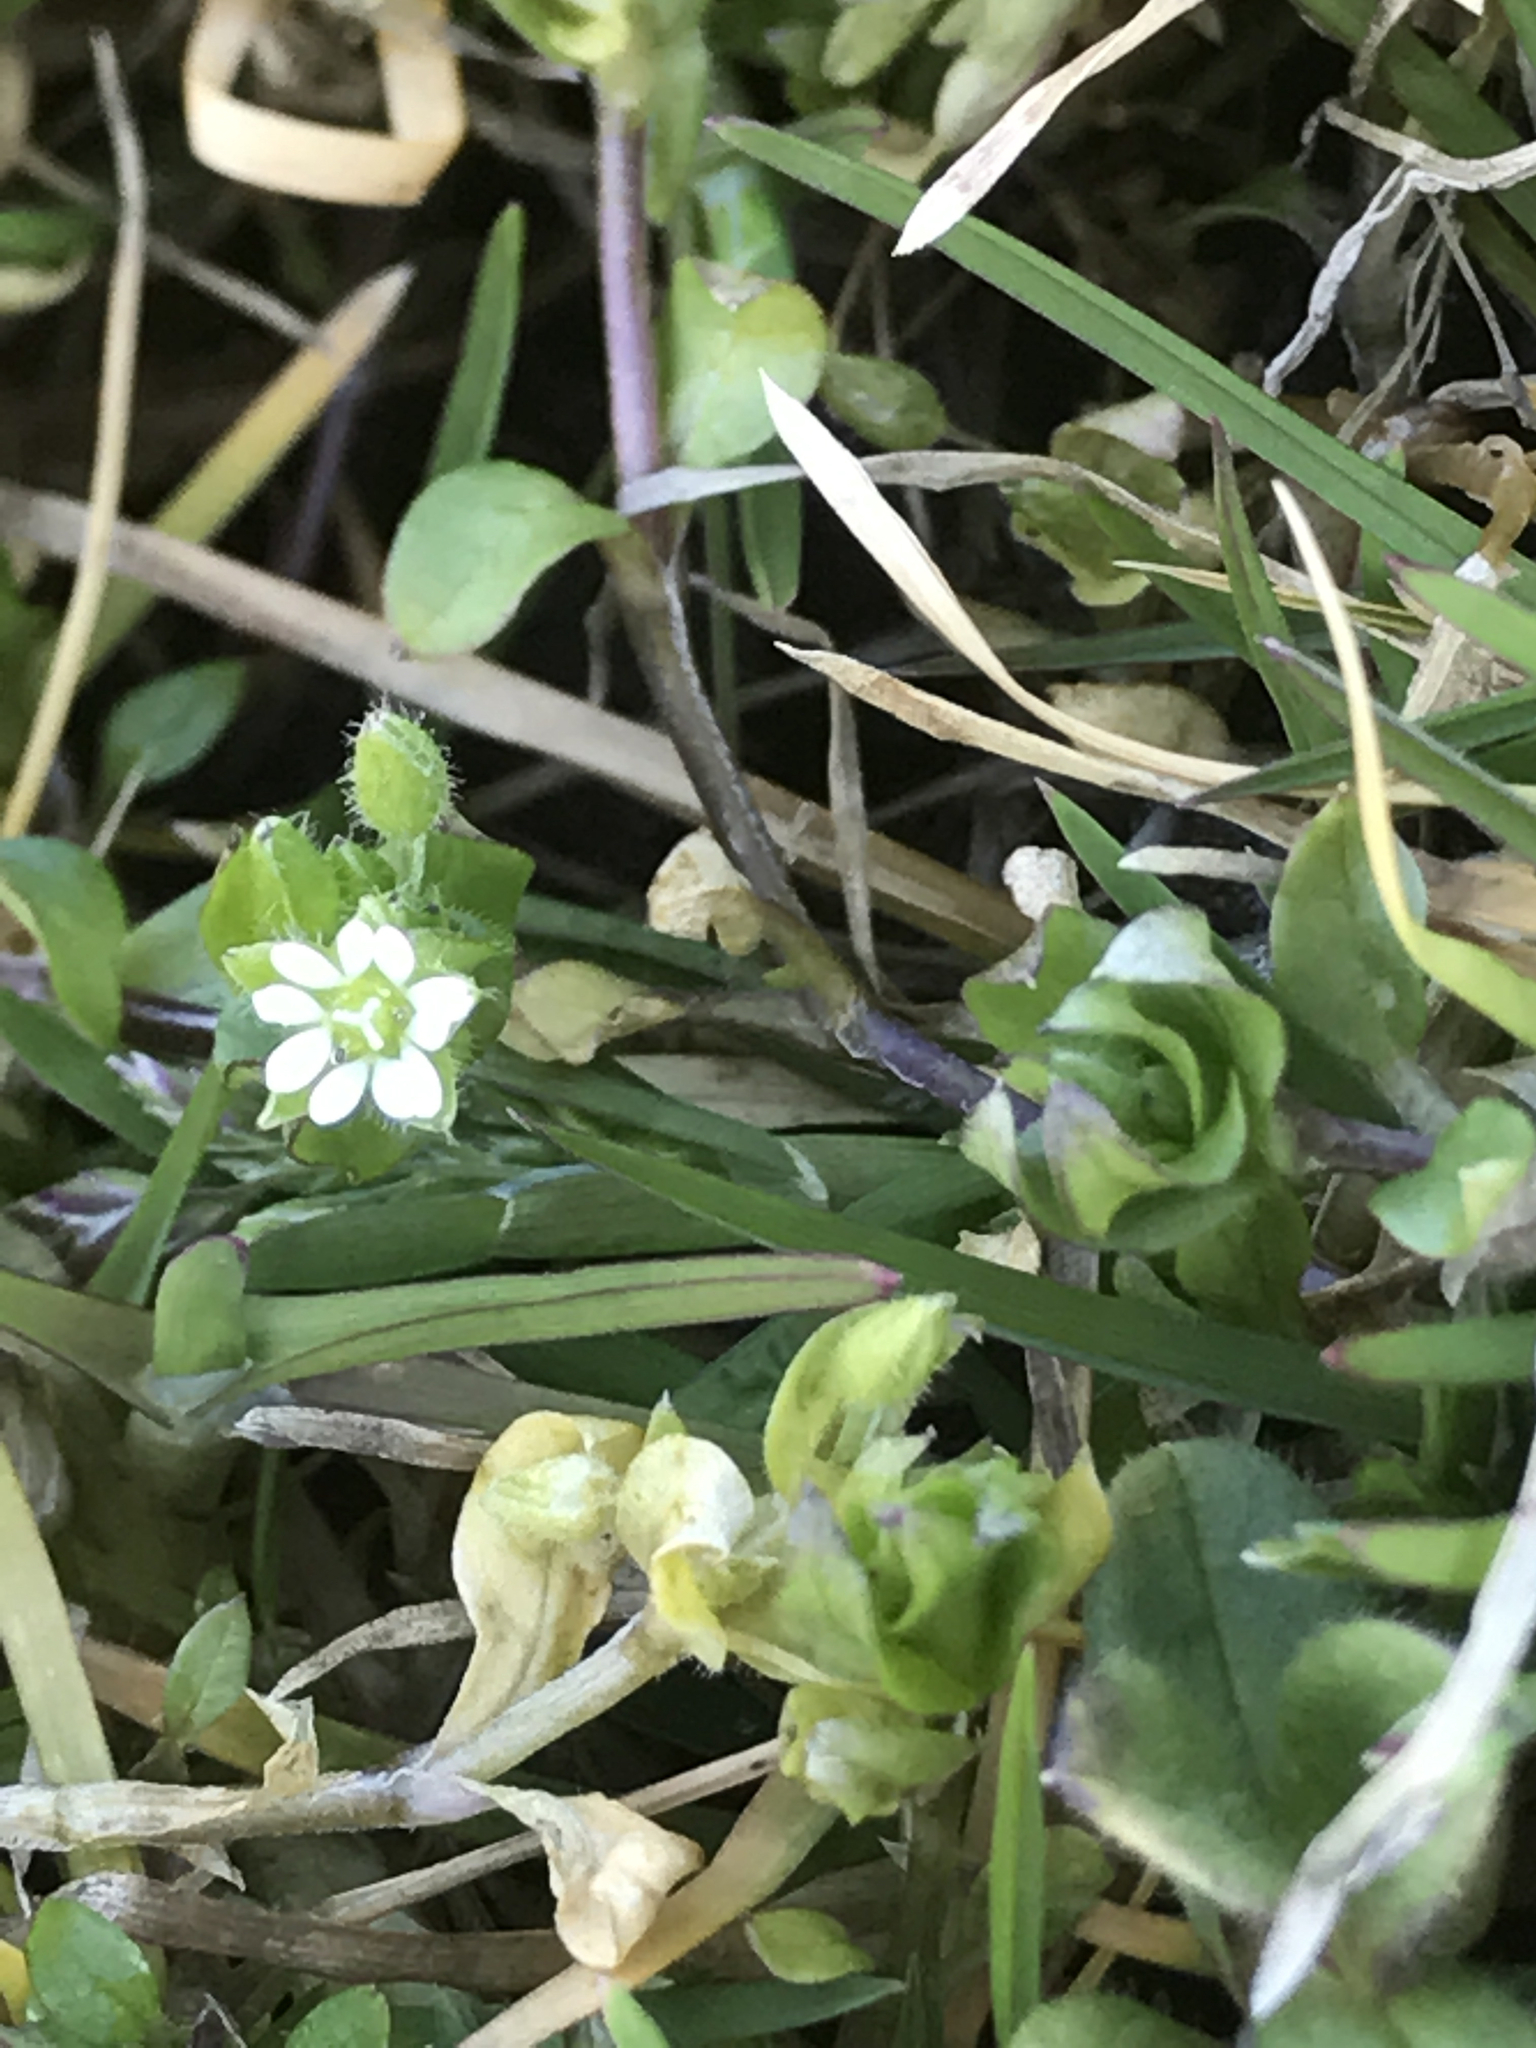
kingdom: Plantae
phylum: Tracheophyta
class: Magnoliopsida
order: Caryophyllales
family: Caryophyllaceae
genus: Stellaria
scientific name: Stellaria media
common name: Common chickweed
